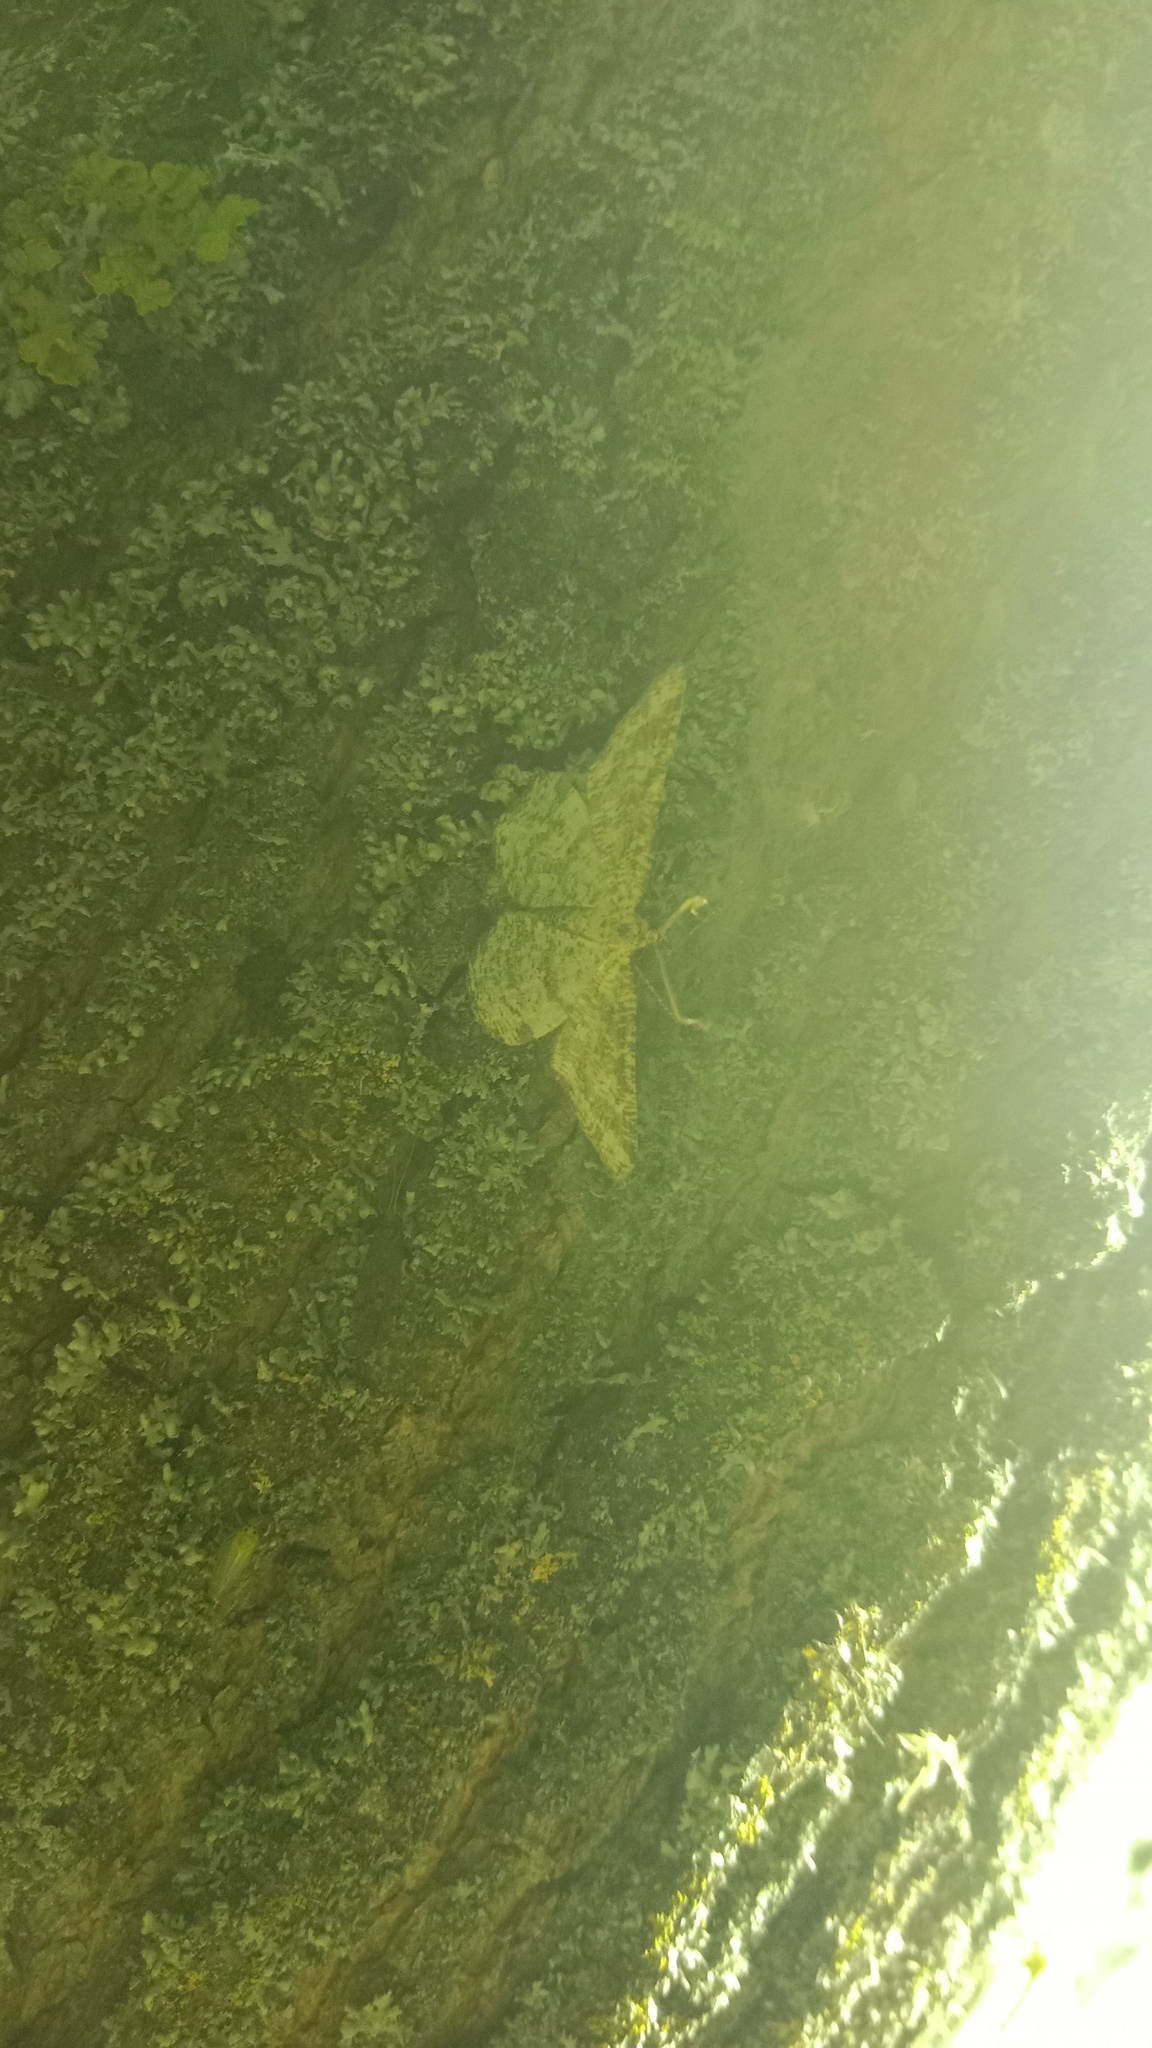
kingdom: Animalia
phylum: Arthropoda
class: Insecta
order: Lepidoptera
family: Geometridae
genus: Heliomata
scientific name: Heliomata glarearia
